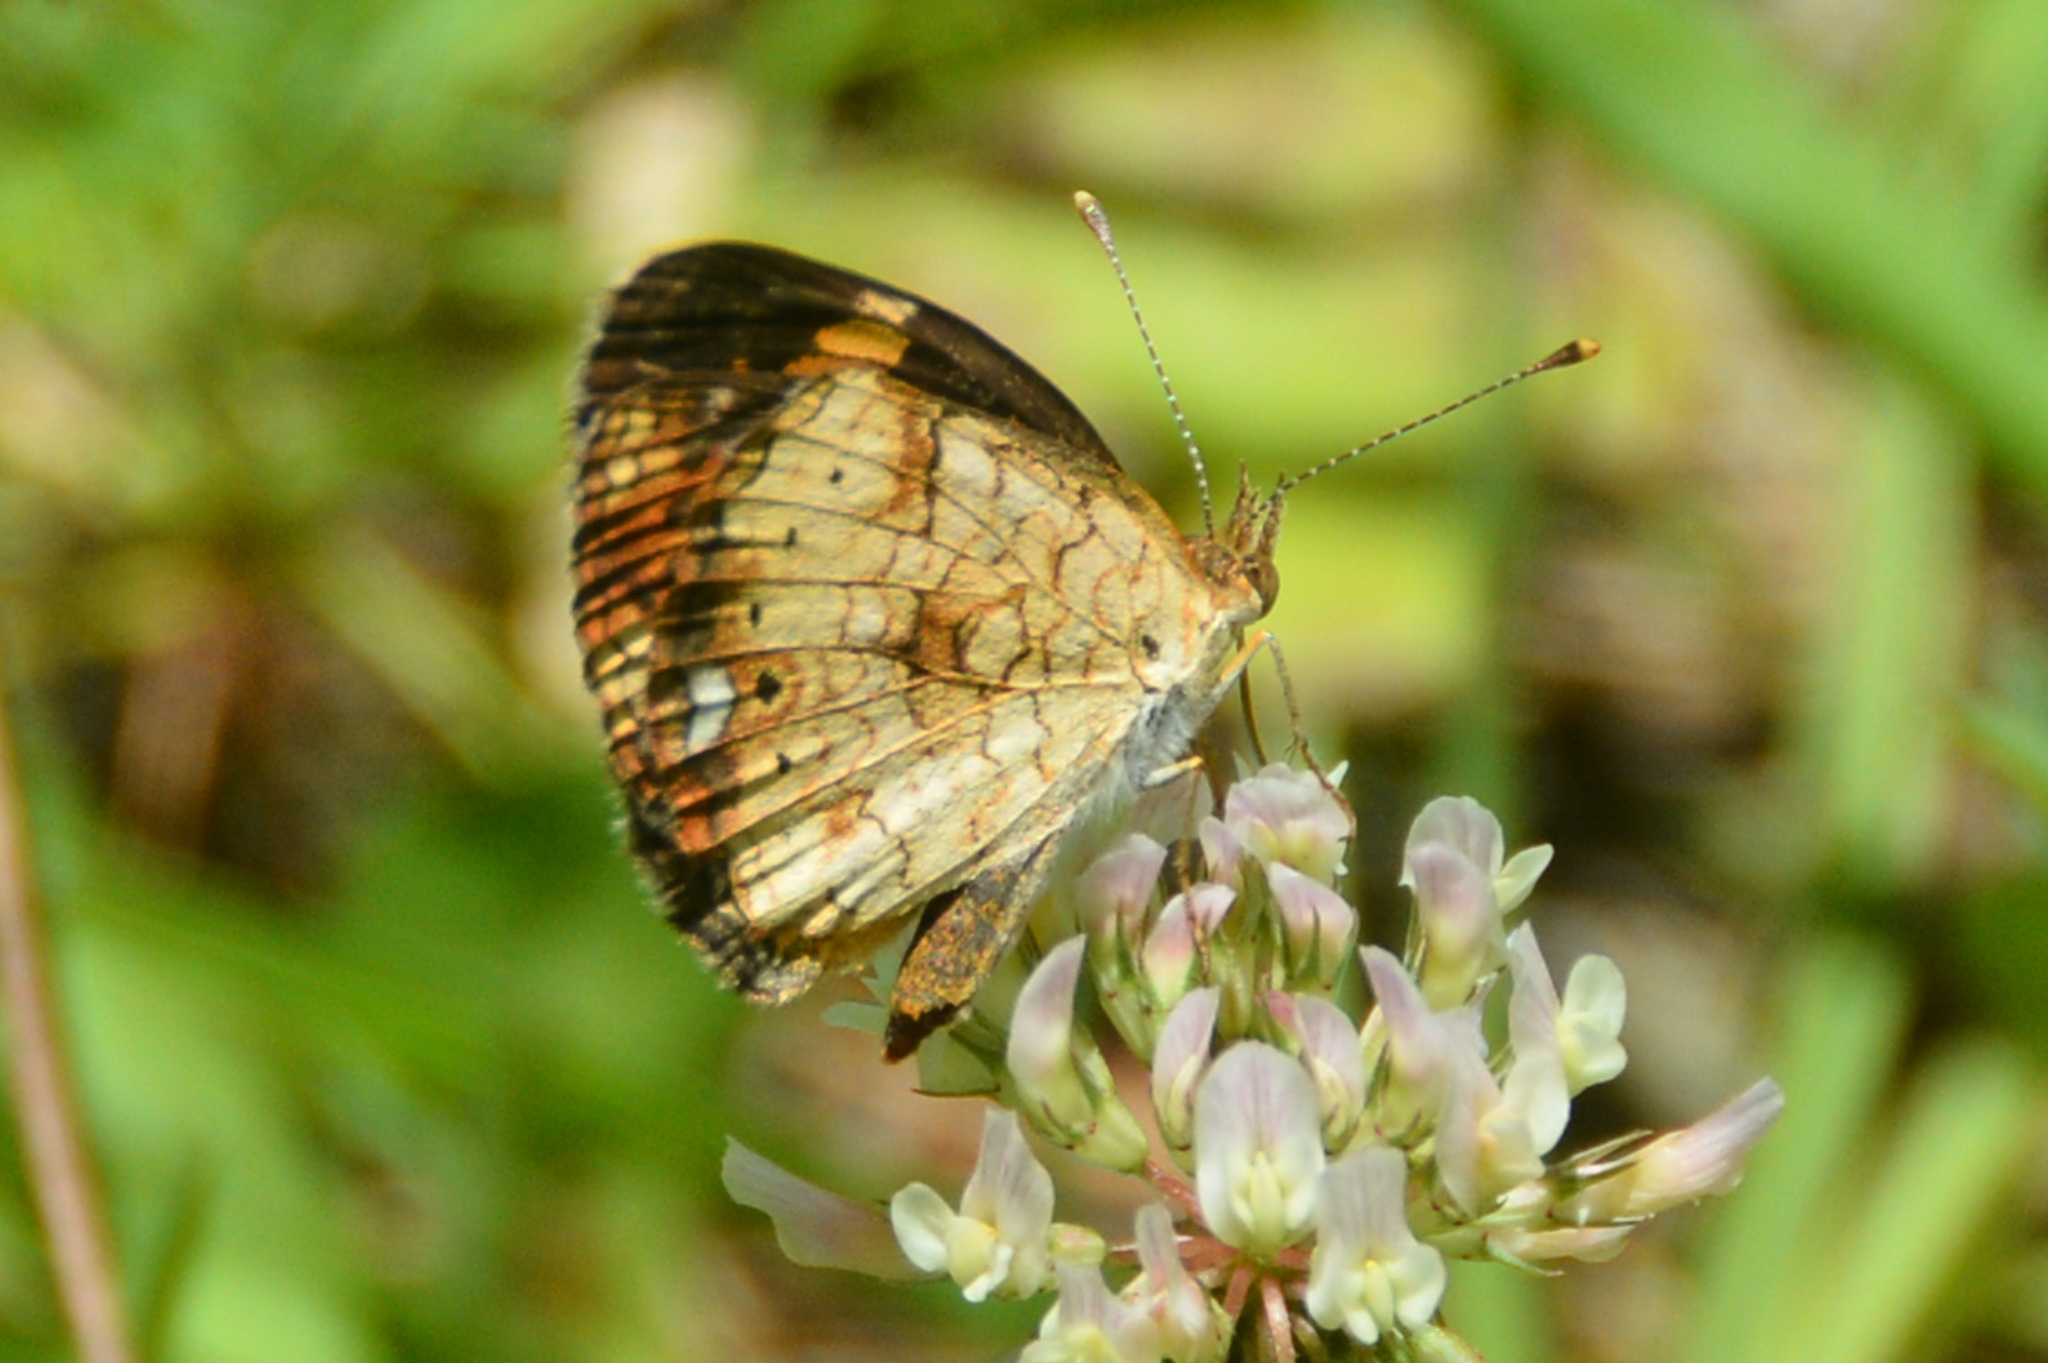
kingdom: Animalia
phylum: Arthropoda
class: Insecta
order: Lepidoptera
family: Nymphalidae
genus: Phyciodes
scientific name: Phyciodes tharos
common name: Pearl crescent
